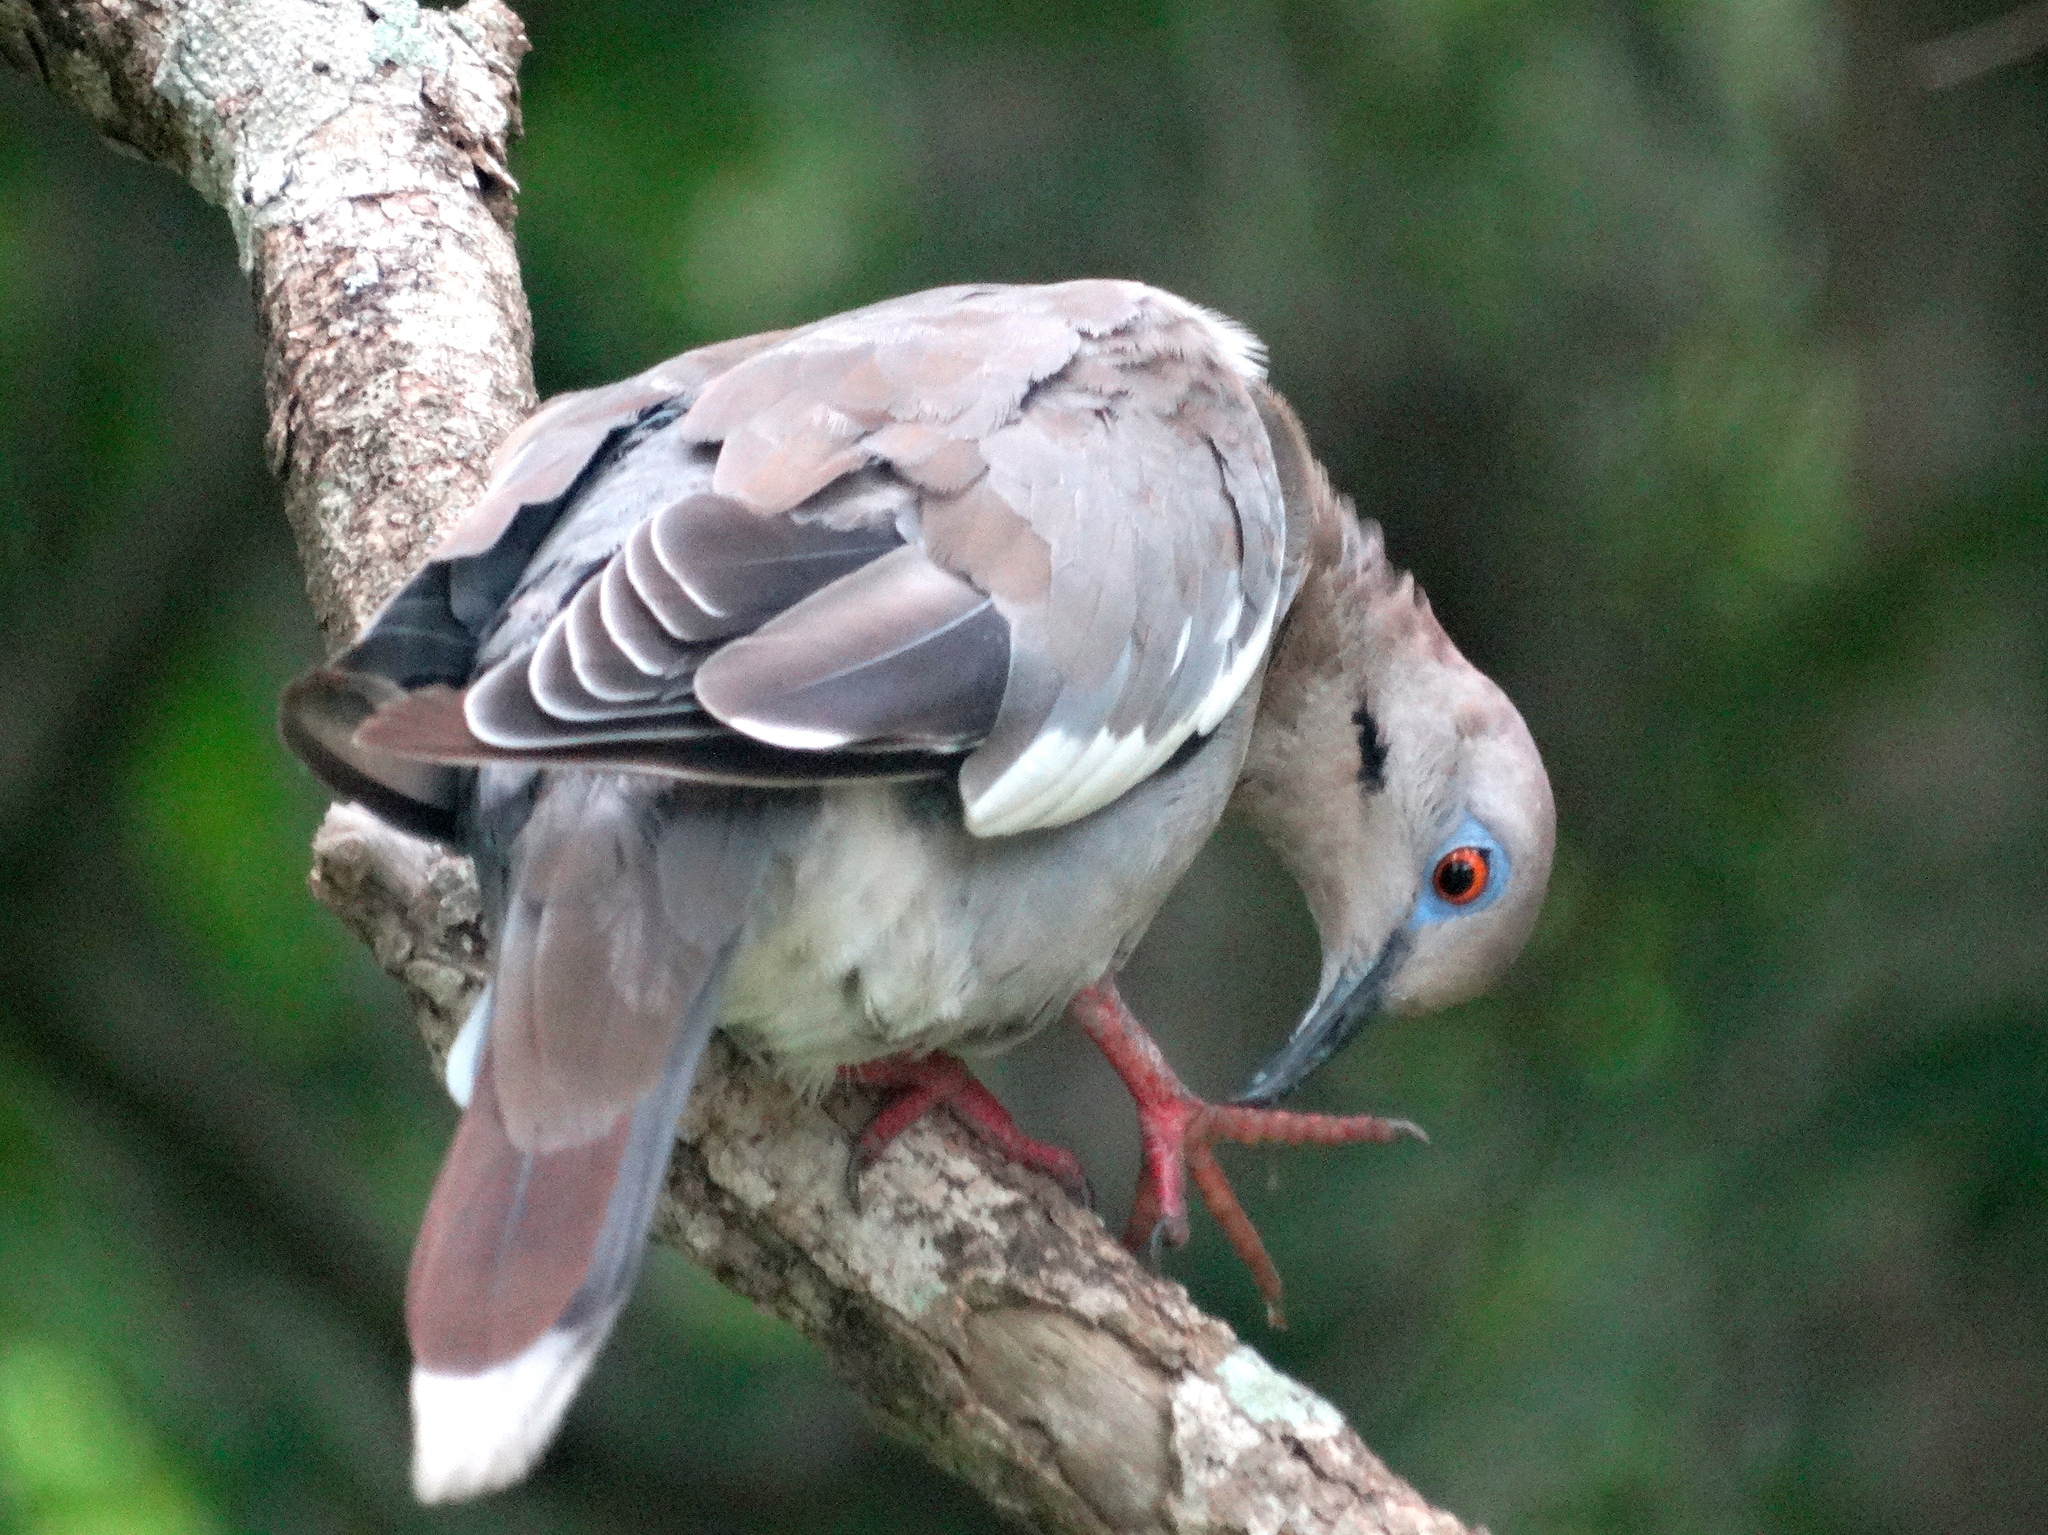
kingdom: Animalia
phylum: Chordata
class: Aves
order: Columbiformes
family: Columbidae
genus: Zenaida
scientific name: Zenaida asiatica
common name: White-winged dove
